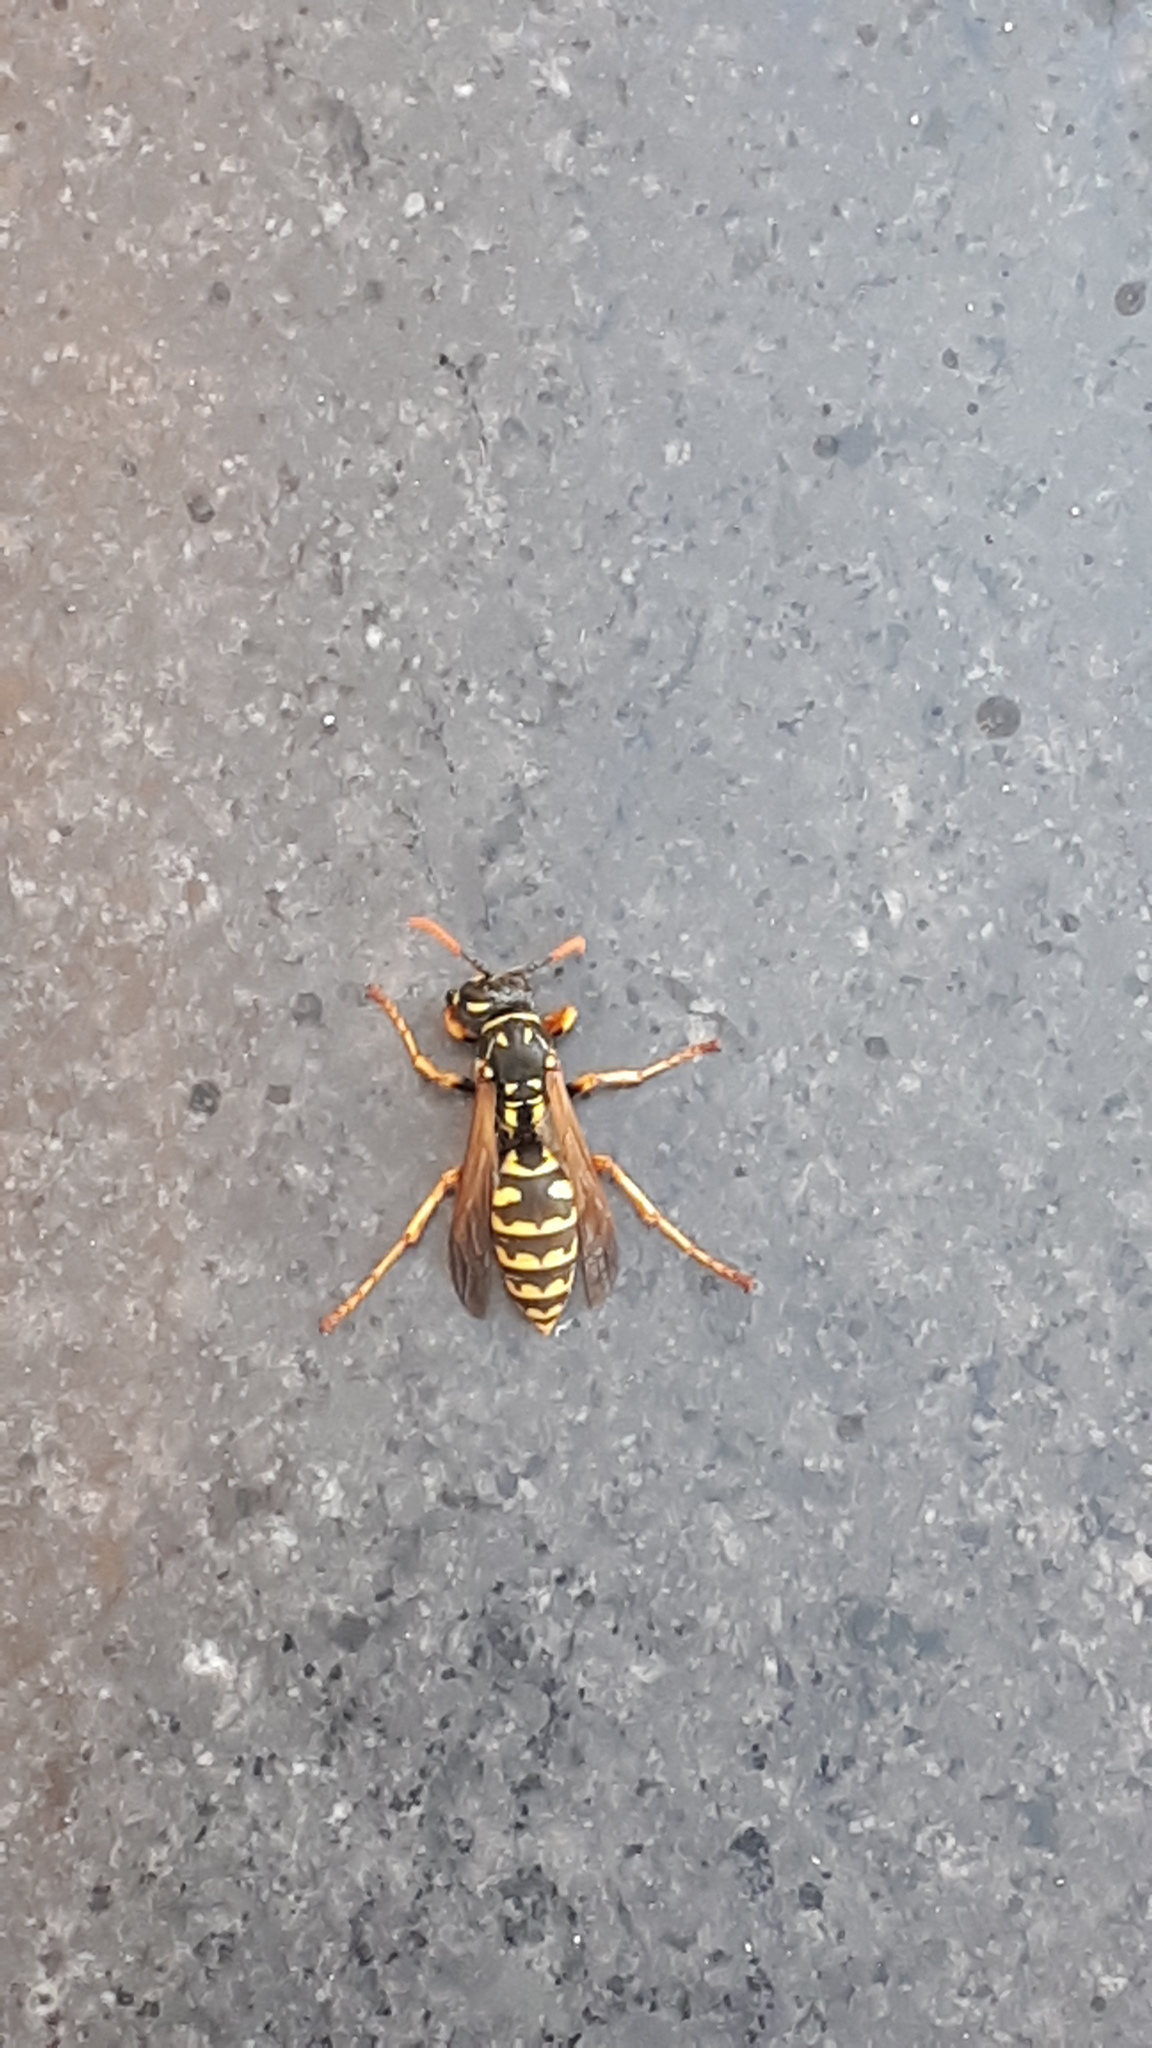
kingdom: Animalia
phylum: Arthropoda
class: Insecta
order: Hymenoptera
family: Eumenidae
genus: Polistes
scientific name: Polistes dominula
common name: Paper wasp
